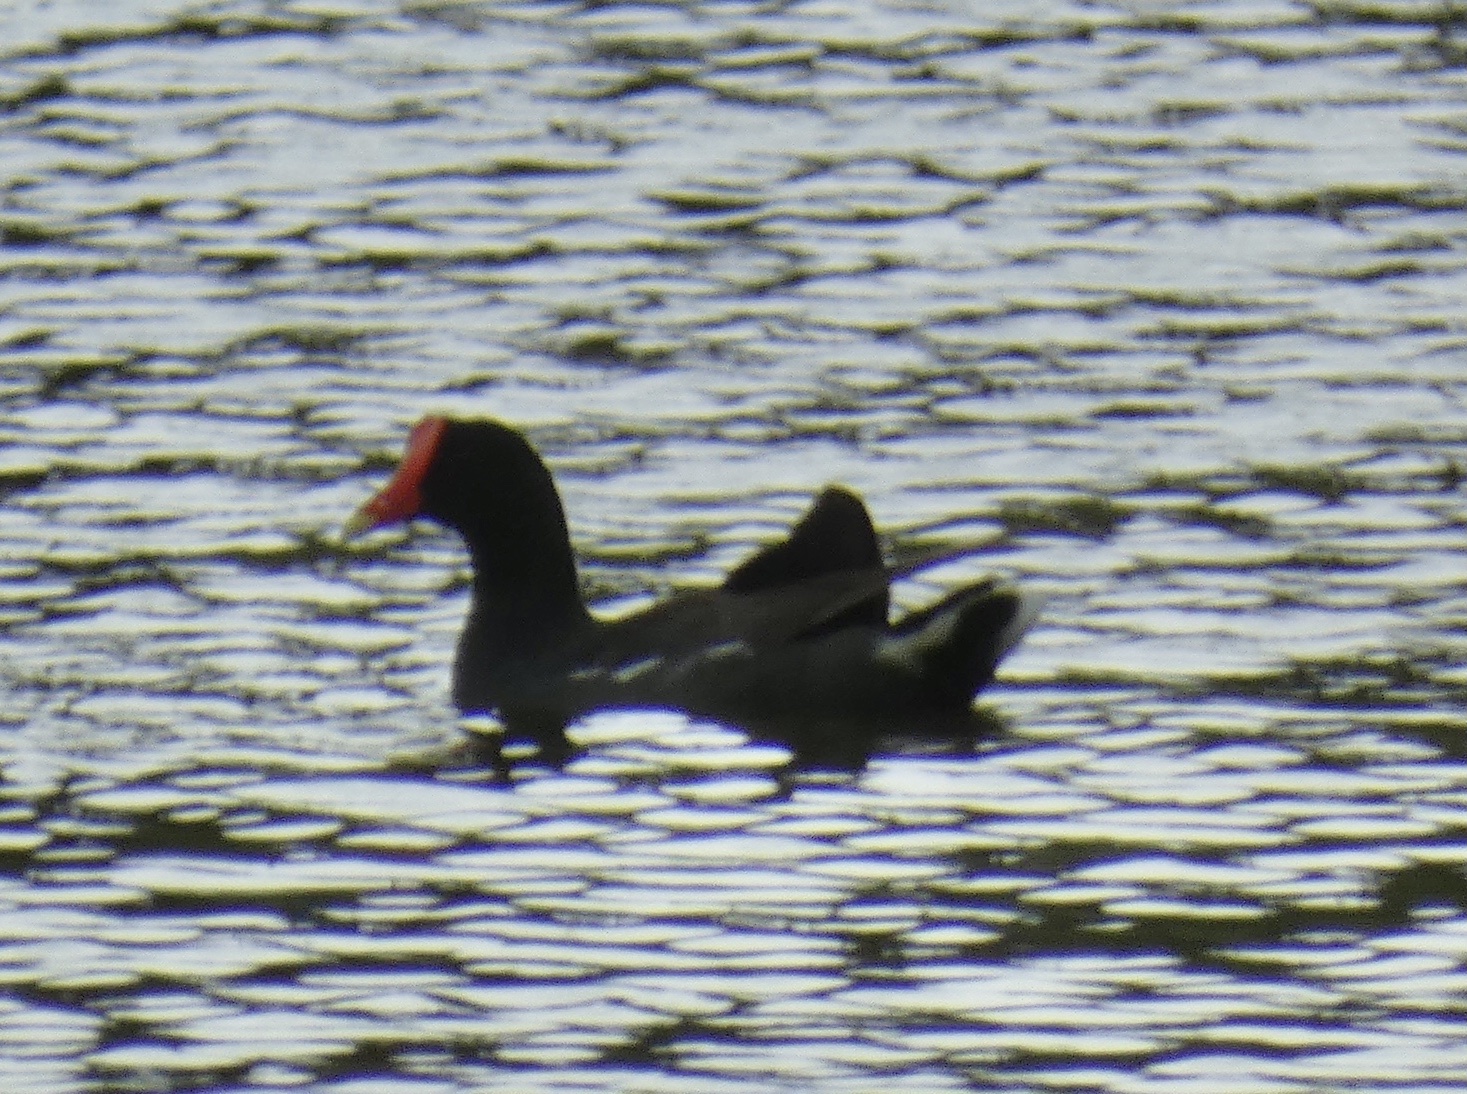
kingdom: Animalia
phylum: Chordata
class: Aves
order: Gruiformes
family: Rallidae
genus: Gallinula
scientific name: Gallinula chloropus
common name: Common moorhen
